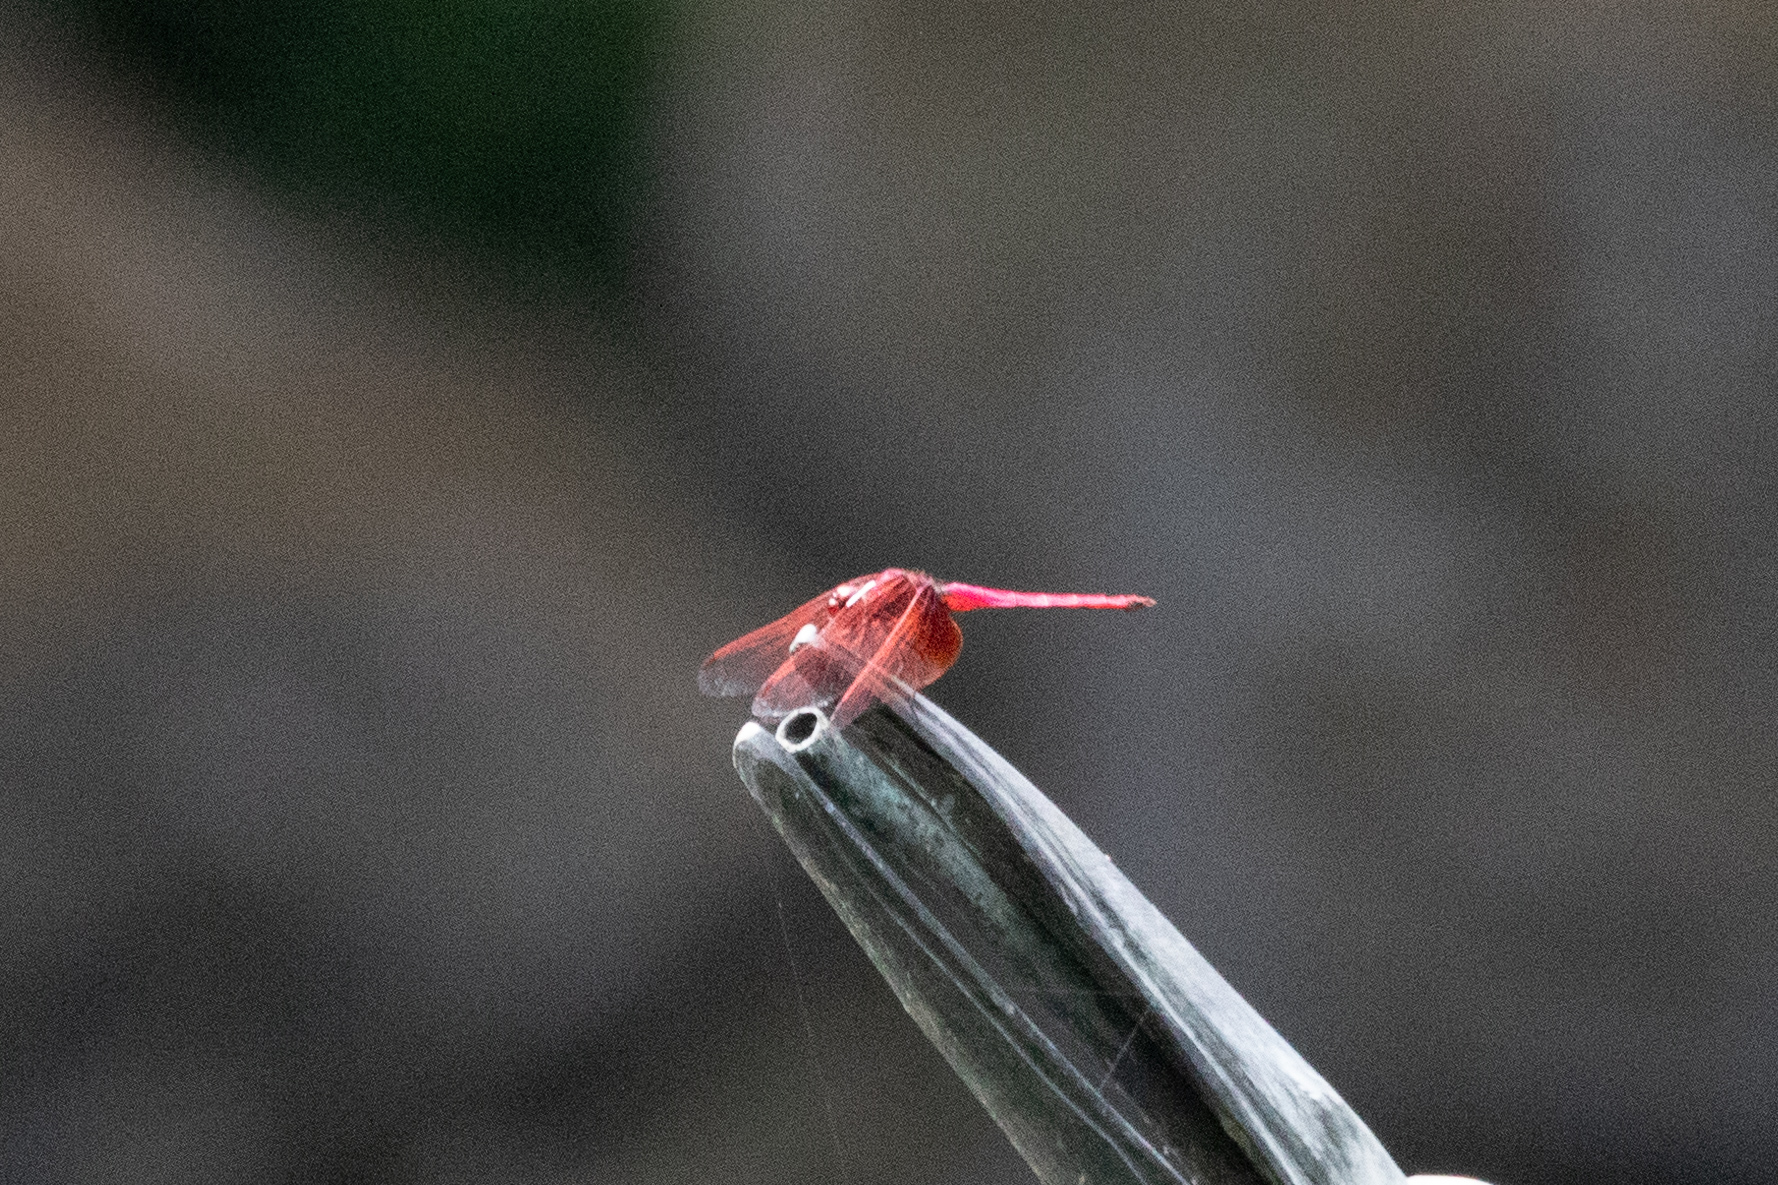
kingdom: Animalia
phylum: Arthropoda
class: Insecta
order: Odonata
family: Libellulidae
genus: Trithemis
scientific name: Trithemis aurora
